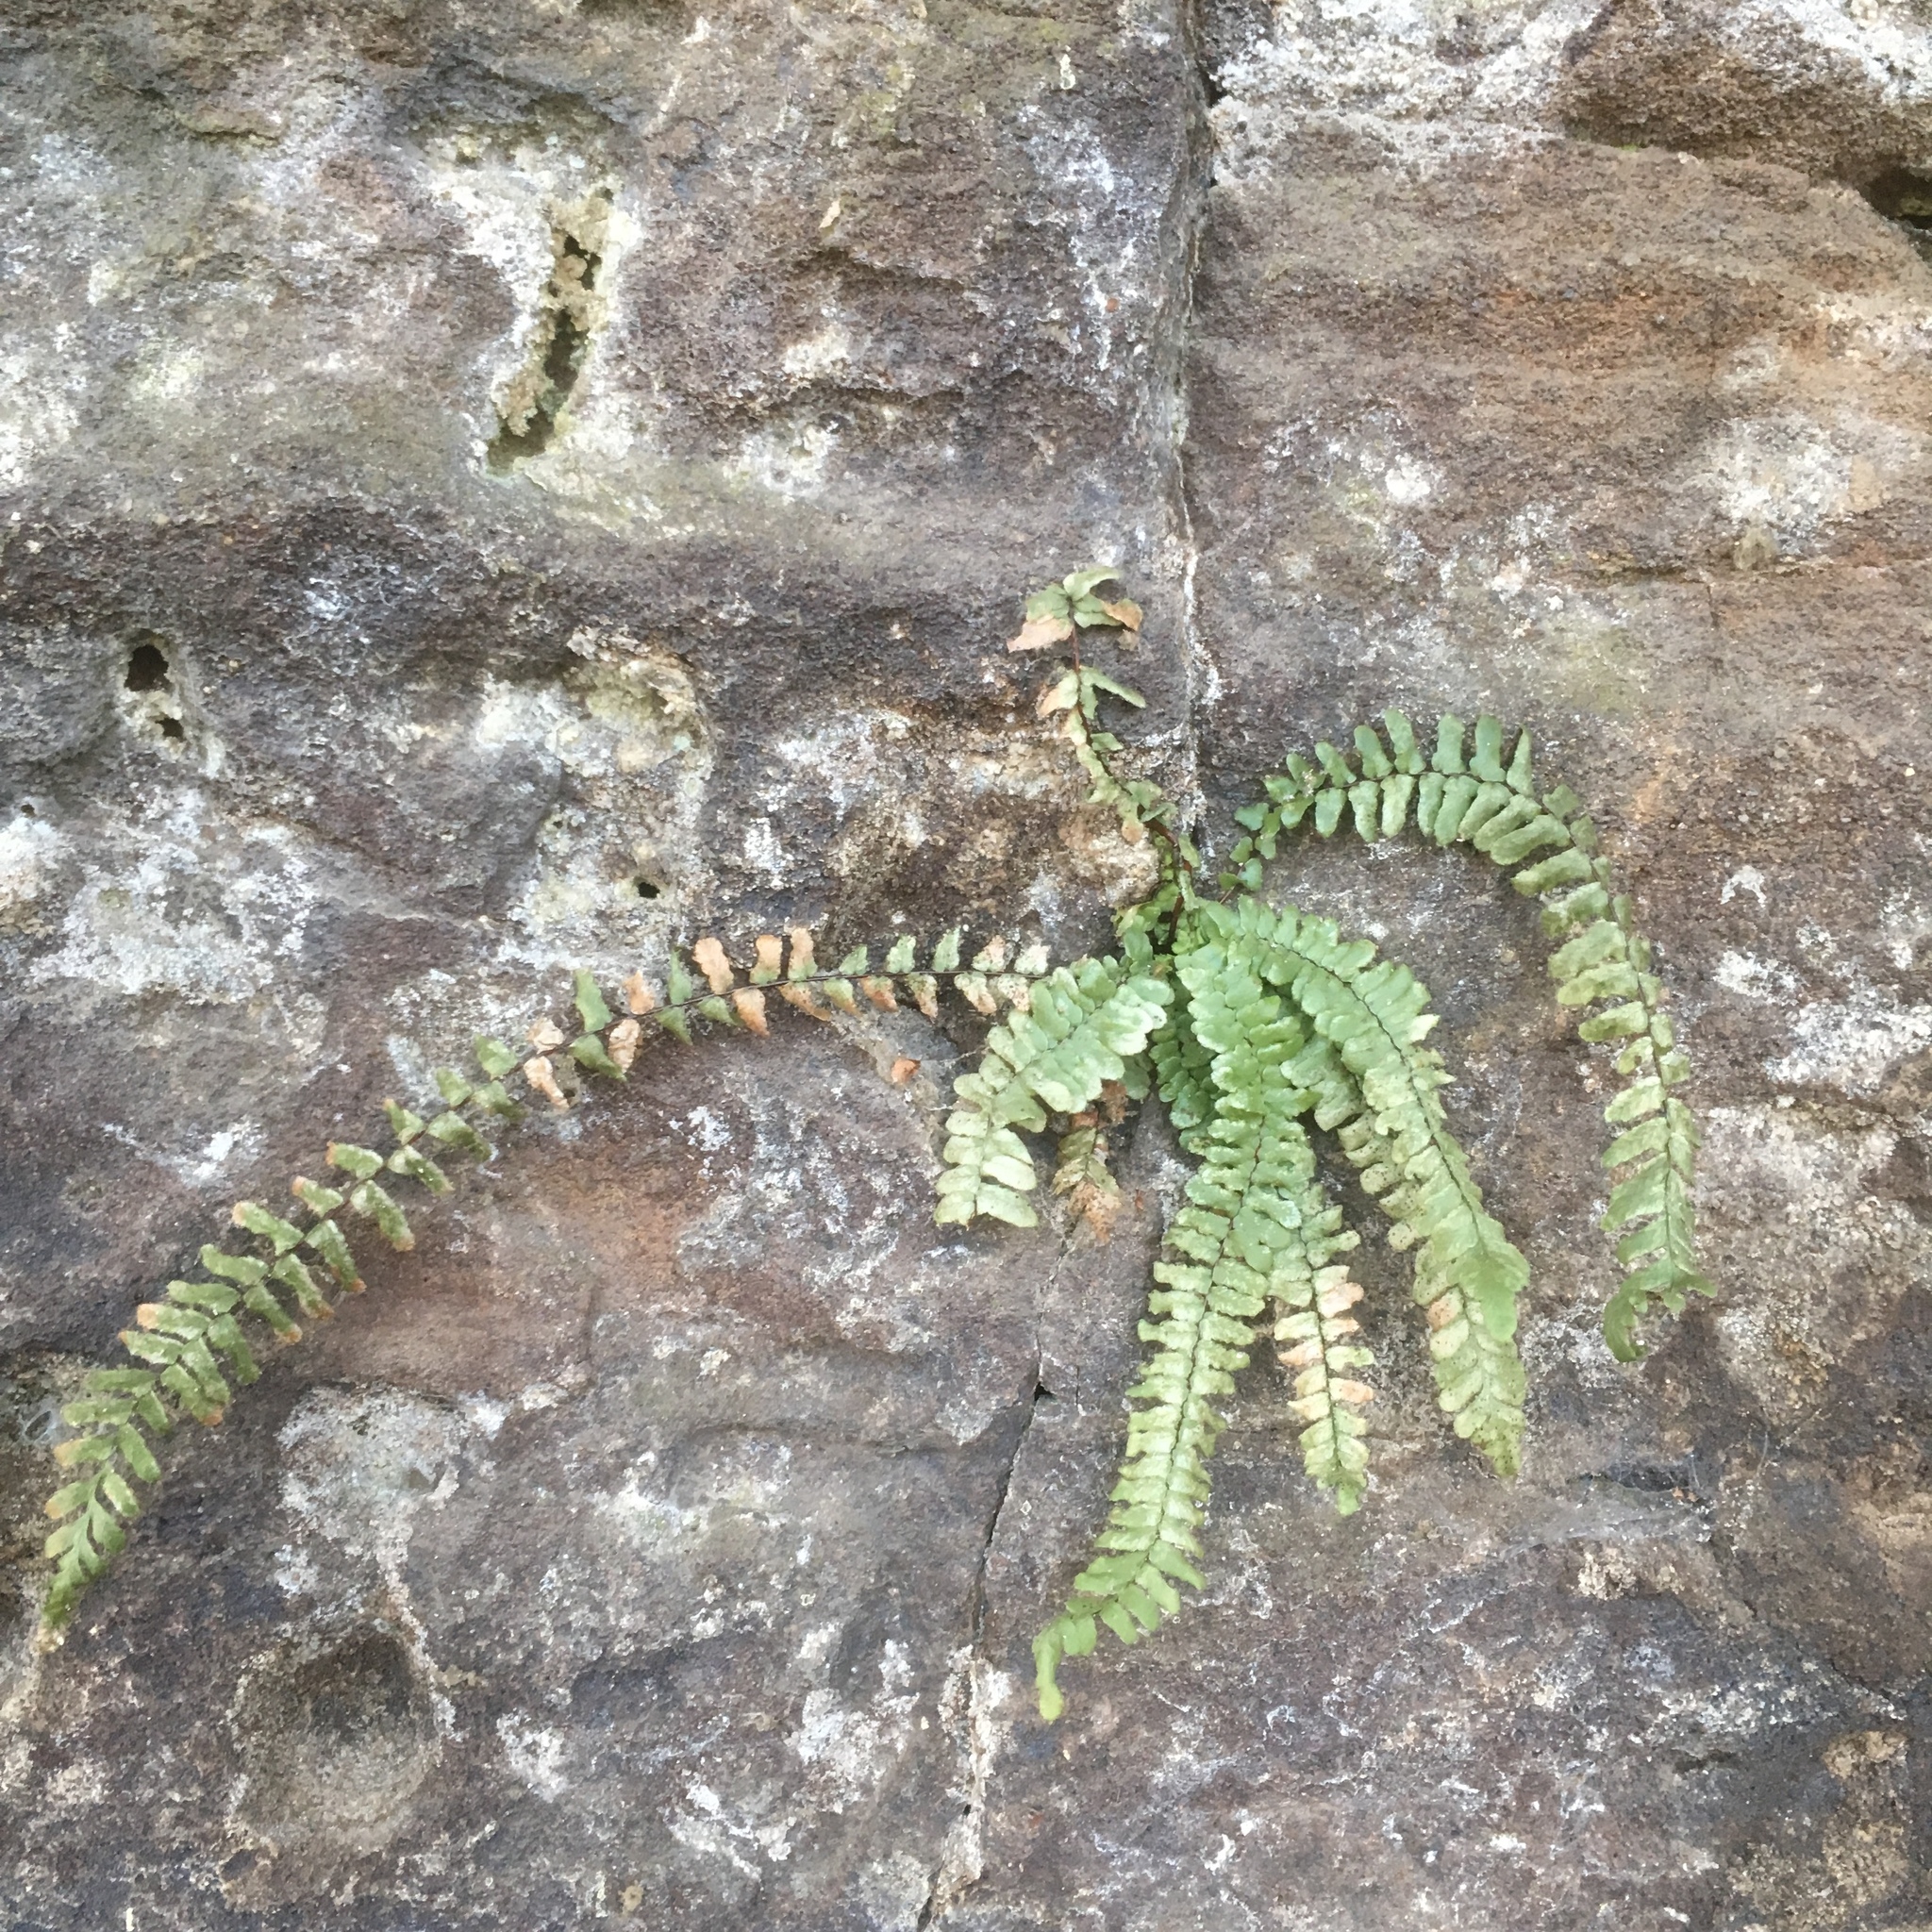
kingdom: Plantae
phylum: Tracheophyta
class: Polypodiopsida
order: Polypodiales
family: Aspleniaceae
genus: Asplenium
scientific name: Asplenium platyneuron
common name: Ebony spleenwort
